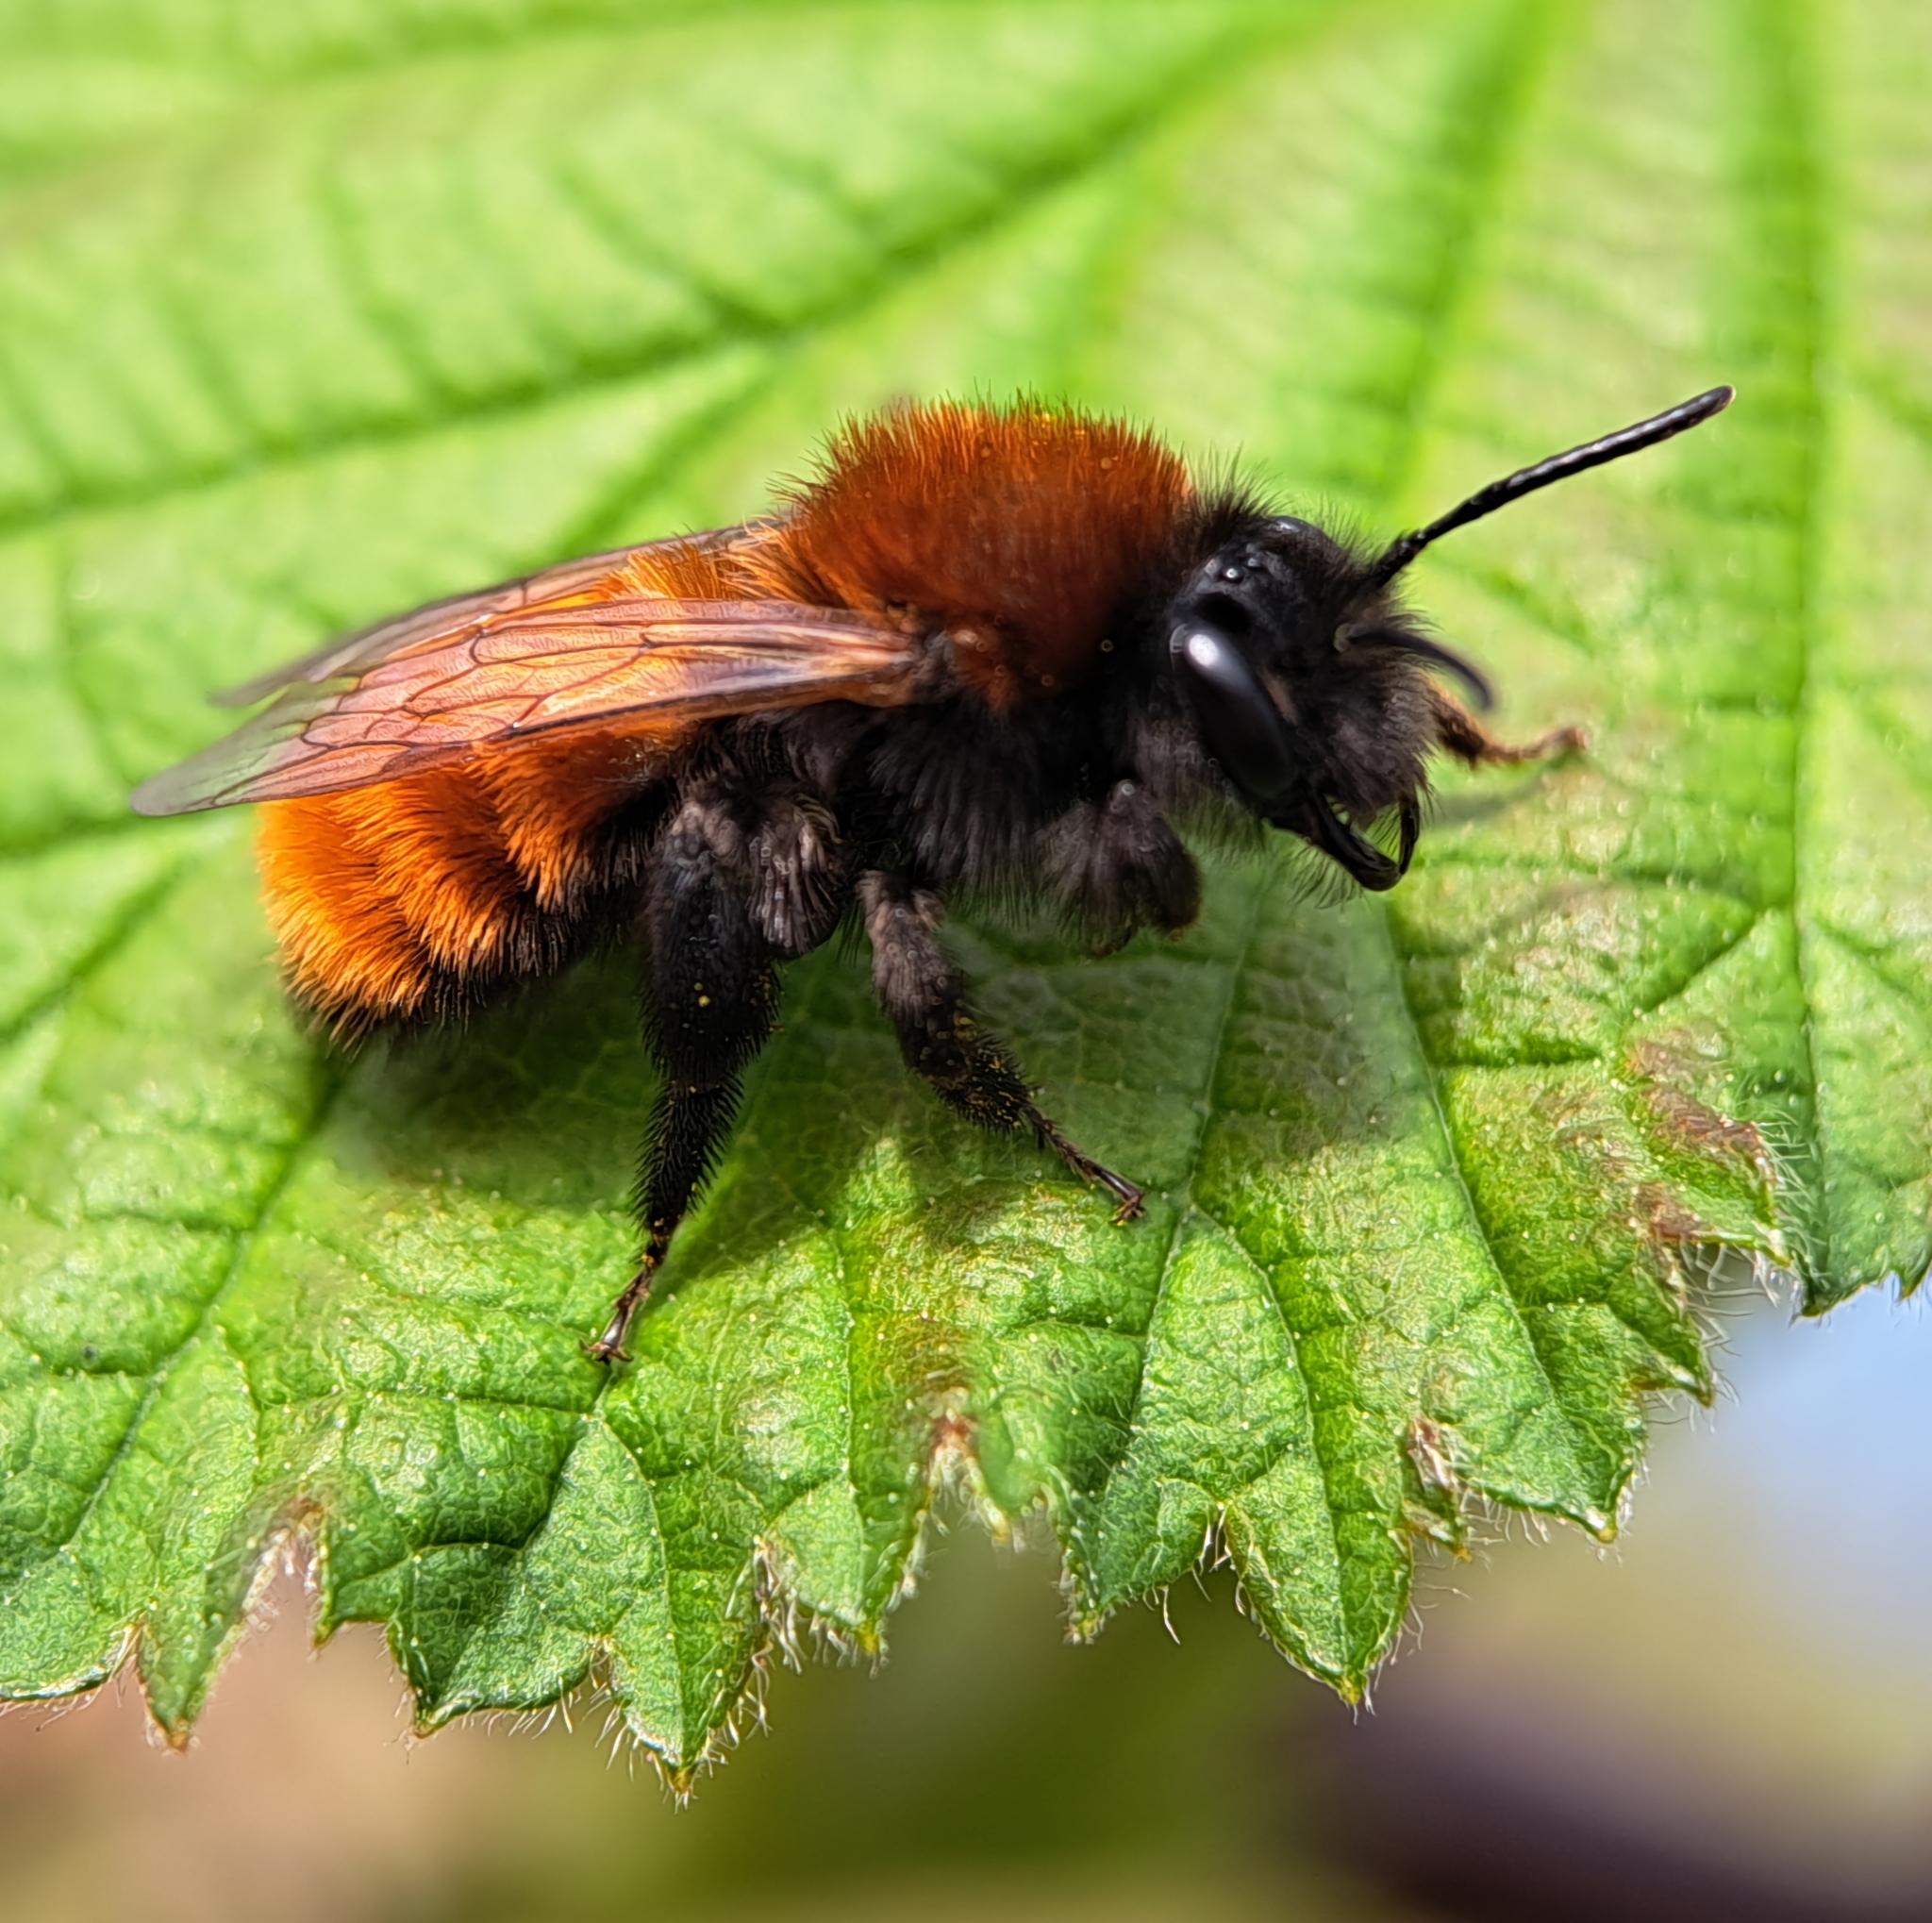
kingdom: Animalia
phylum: Arthropoda
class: Insecta
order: Hymenoptera
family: Andrenidae
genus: Andrena
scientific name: Andrena fulva
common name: Tawny mining bee
